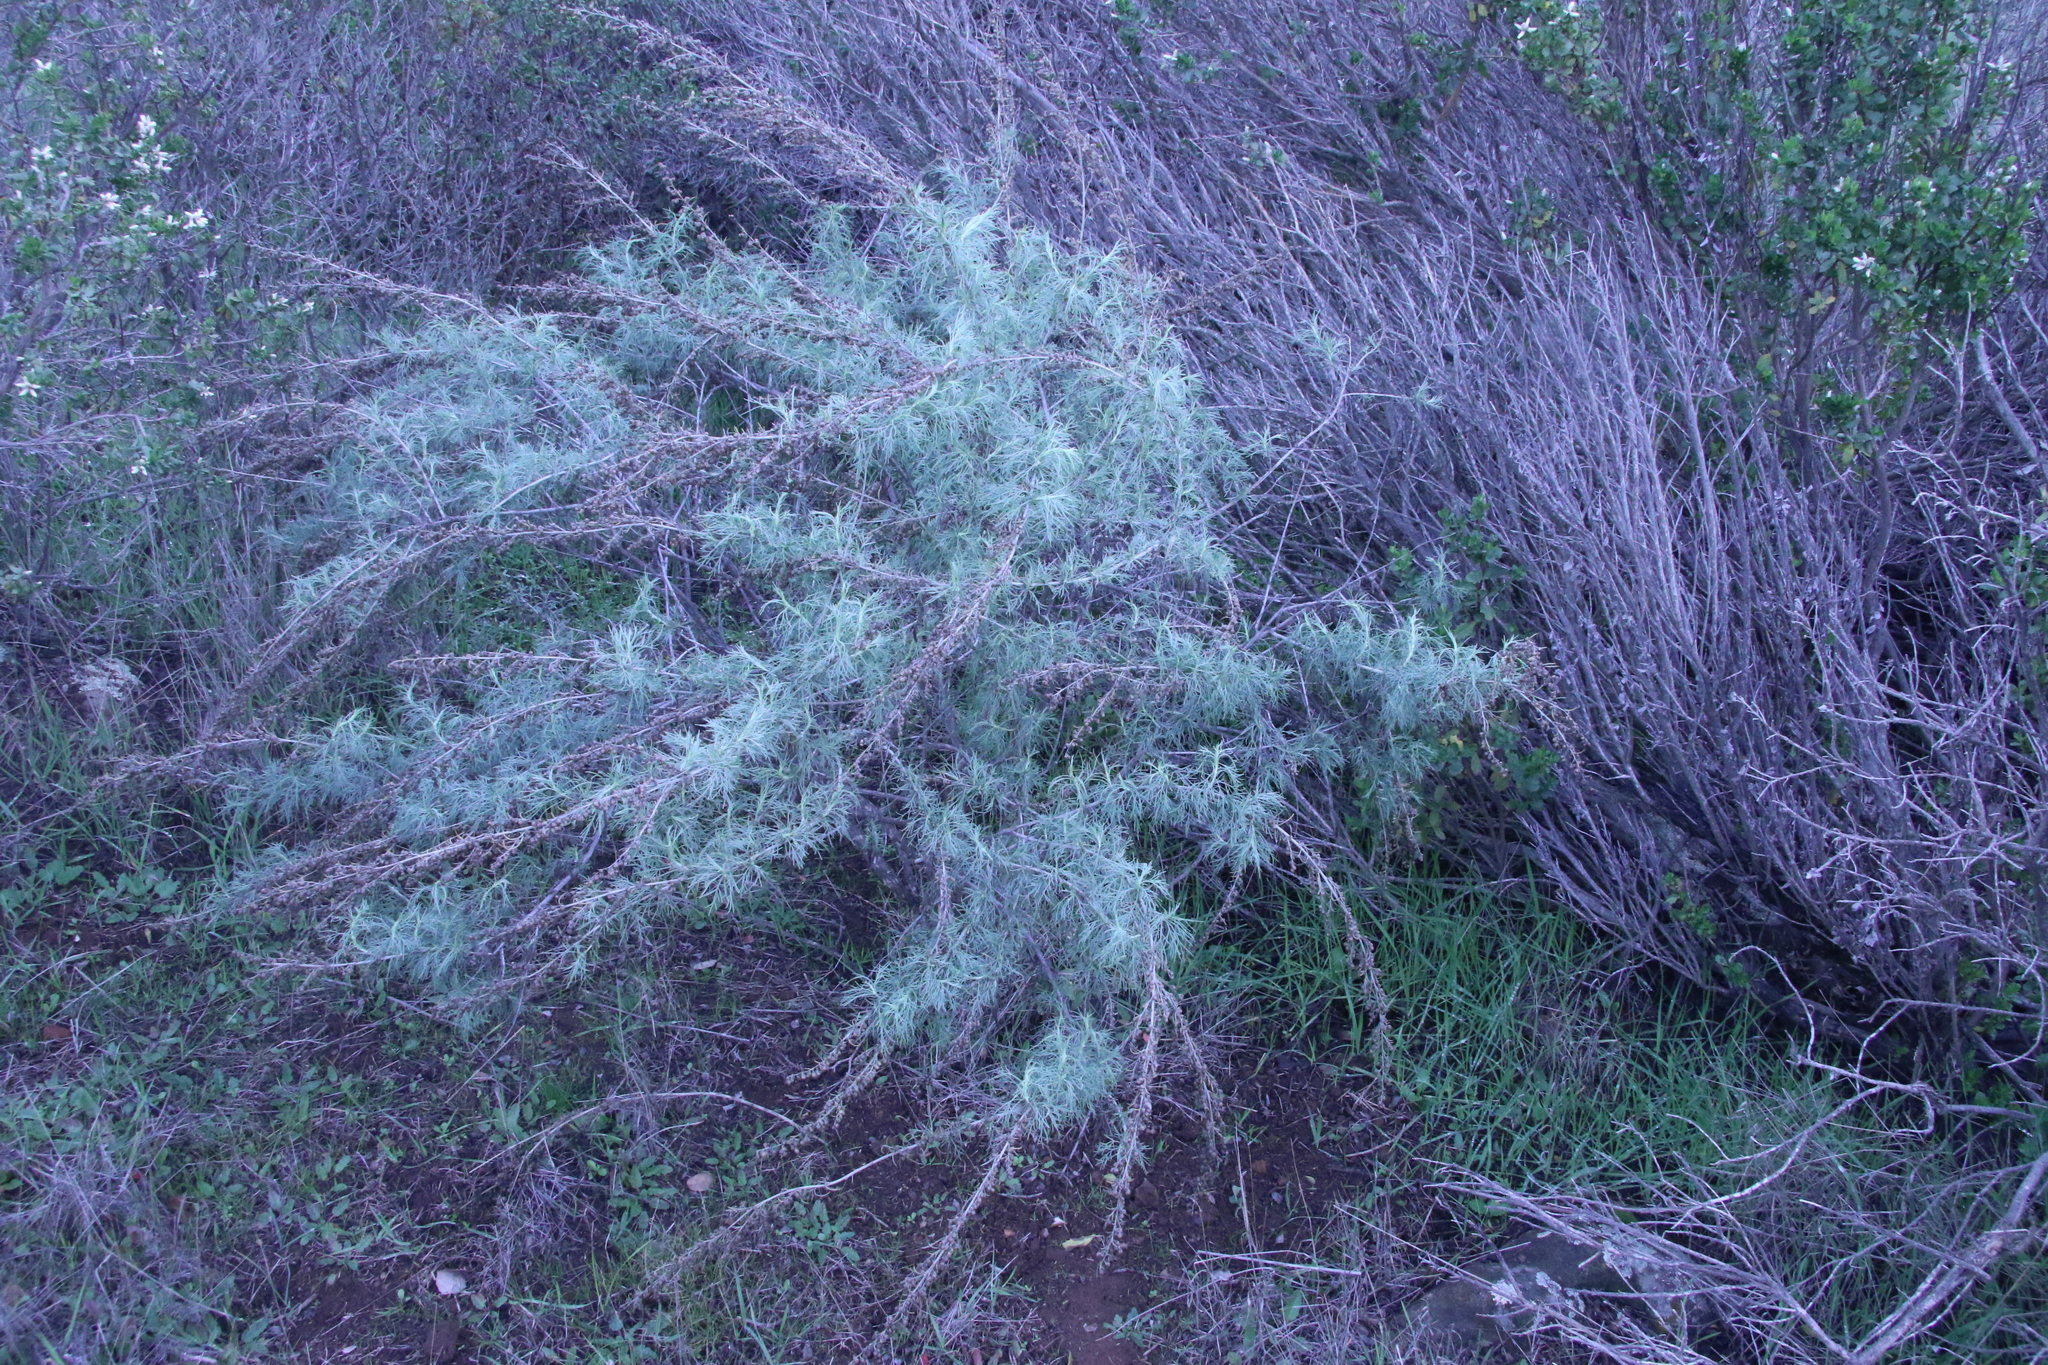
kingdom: Plantae
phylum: Tracheophyta
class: Magnoliopsida
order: Asterales
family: Asteraceae
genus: Artemisia
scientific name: Artemisia californica
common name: California sagebrush
